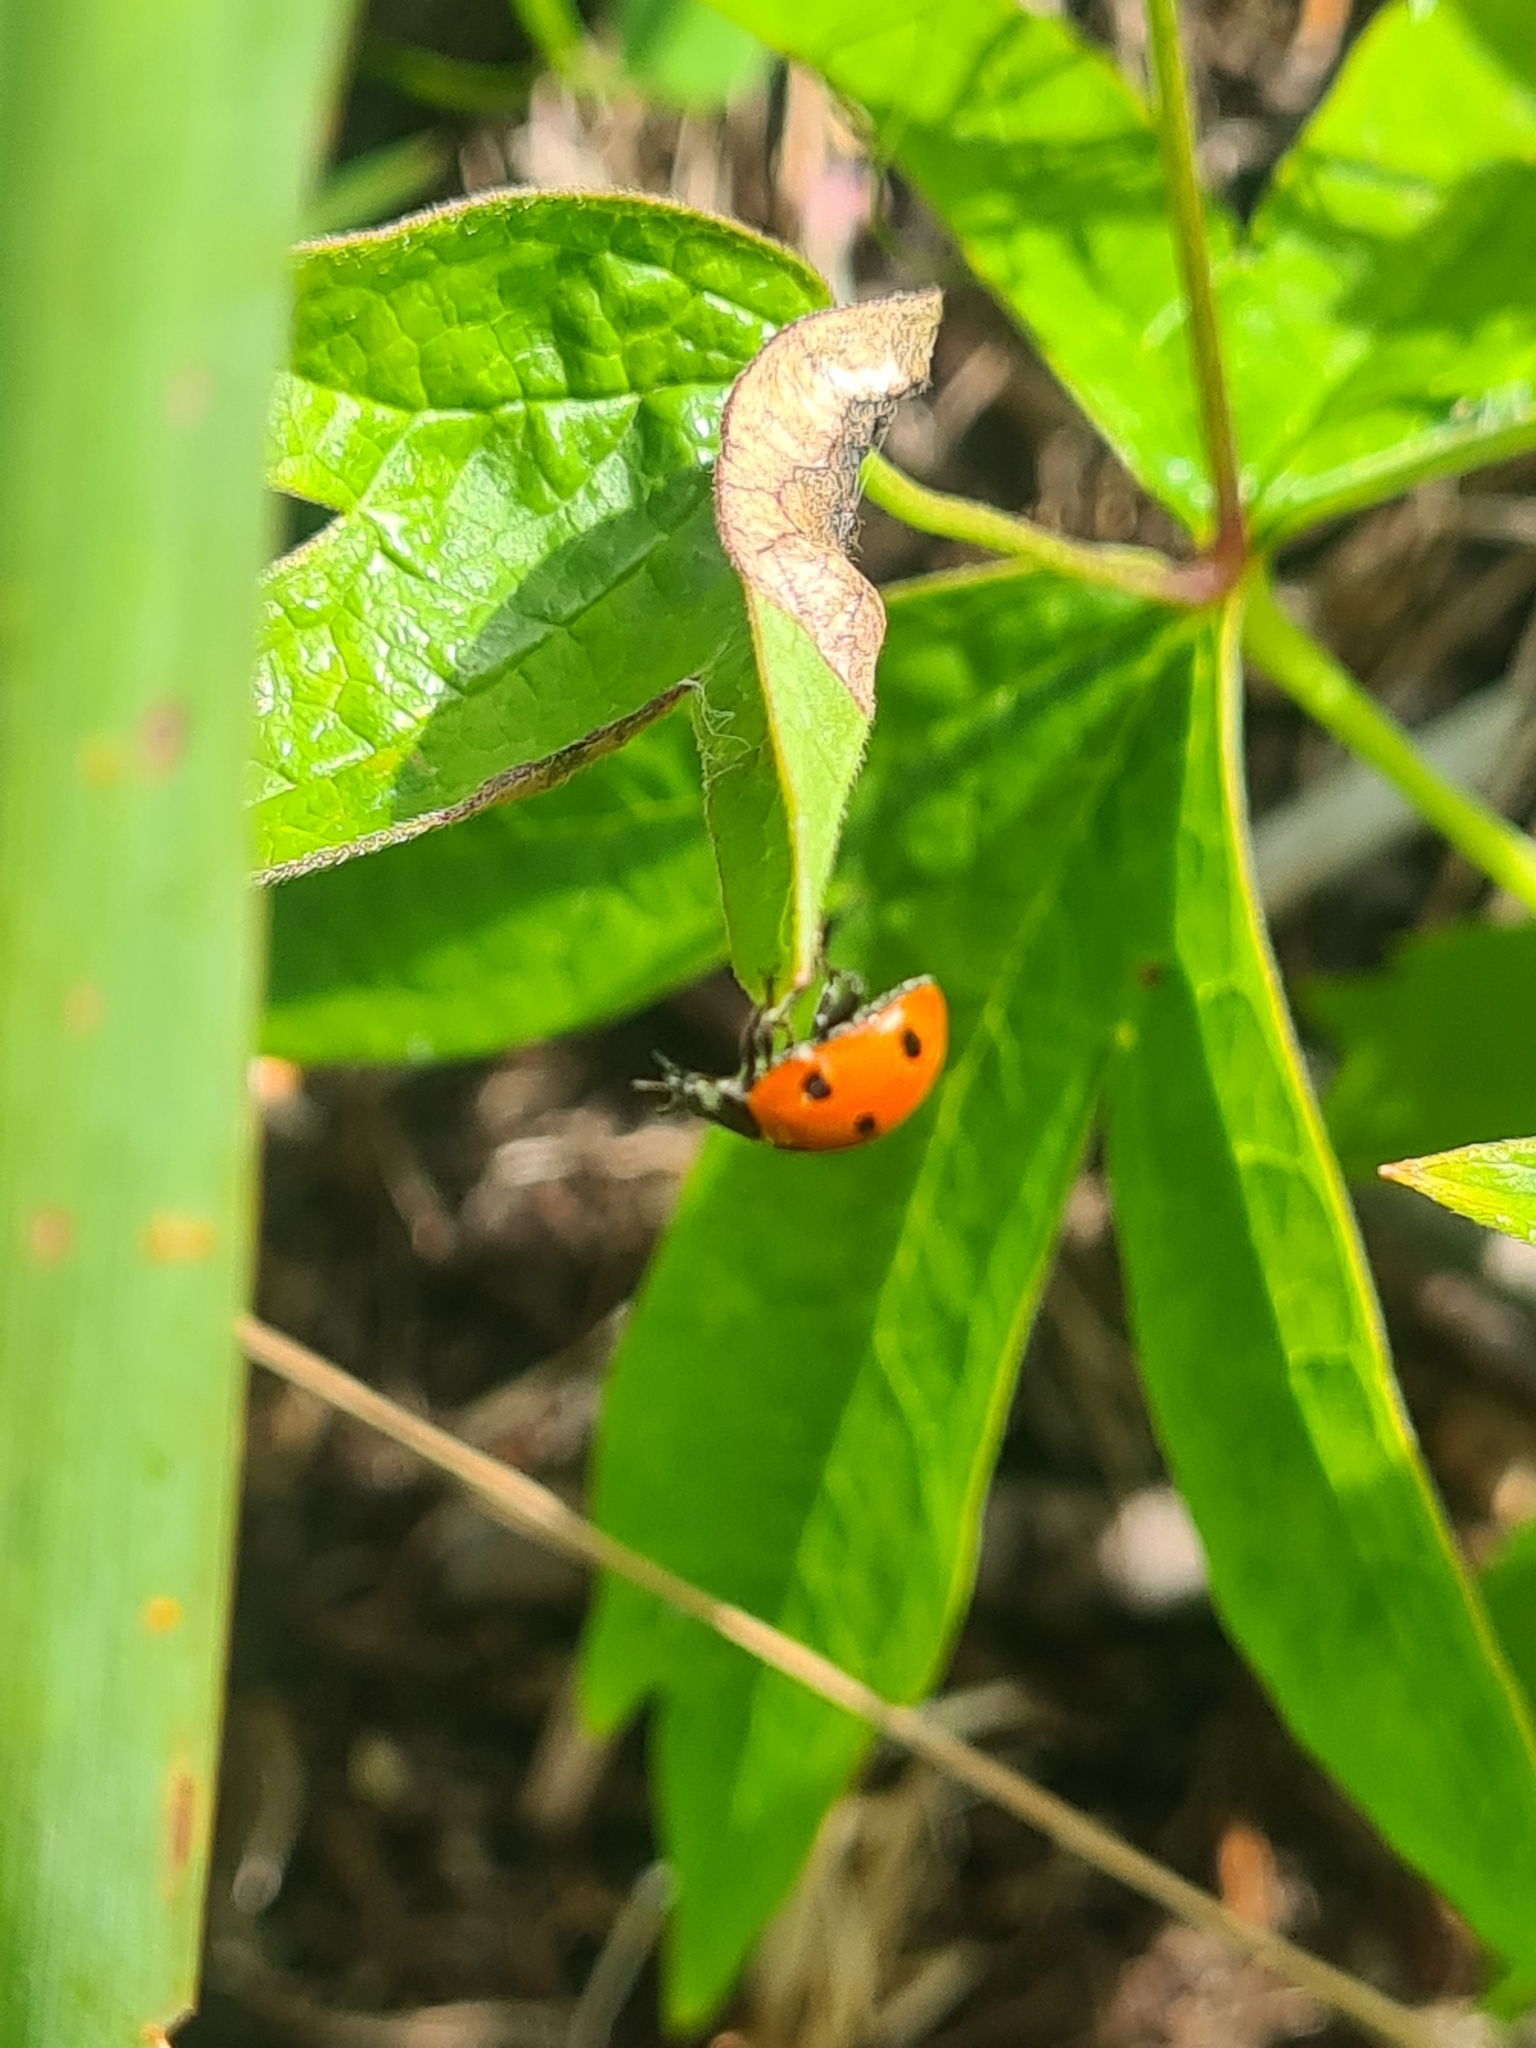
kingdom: Animalia
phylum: Arthropoda
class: Insecta
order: Coleoptera
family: Coccinellidae
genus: Coccinella
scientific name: Coccinella septempunctata
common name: Sevenspotted lady beetle
